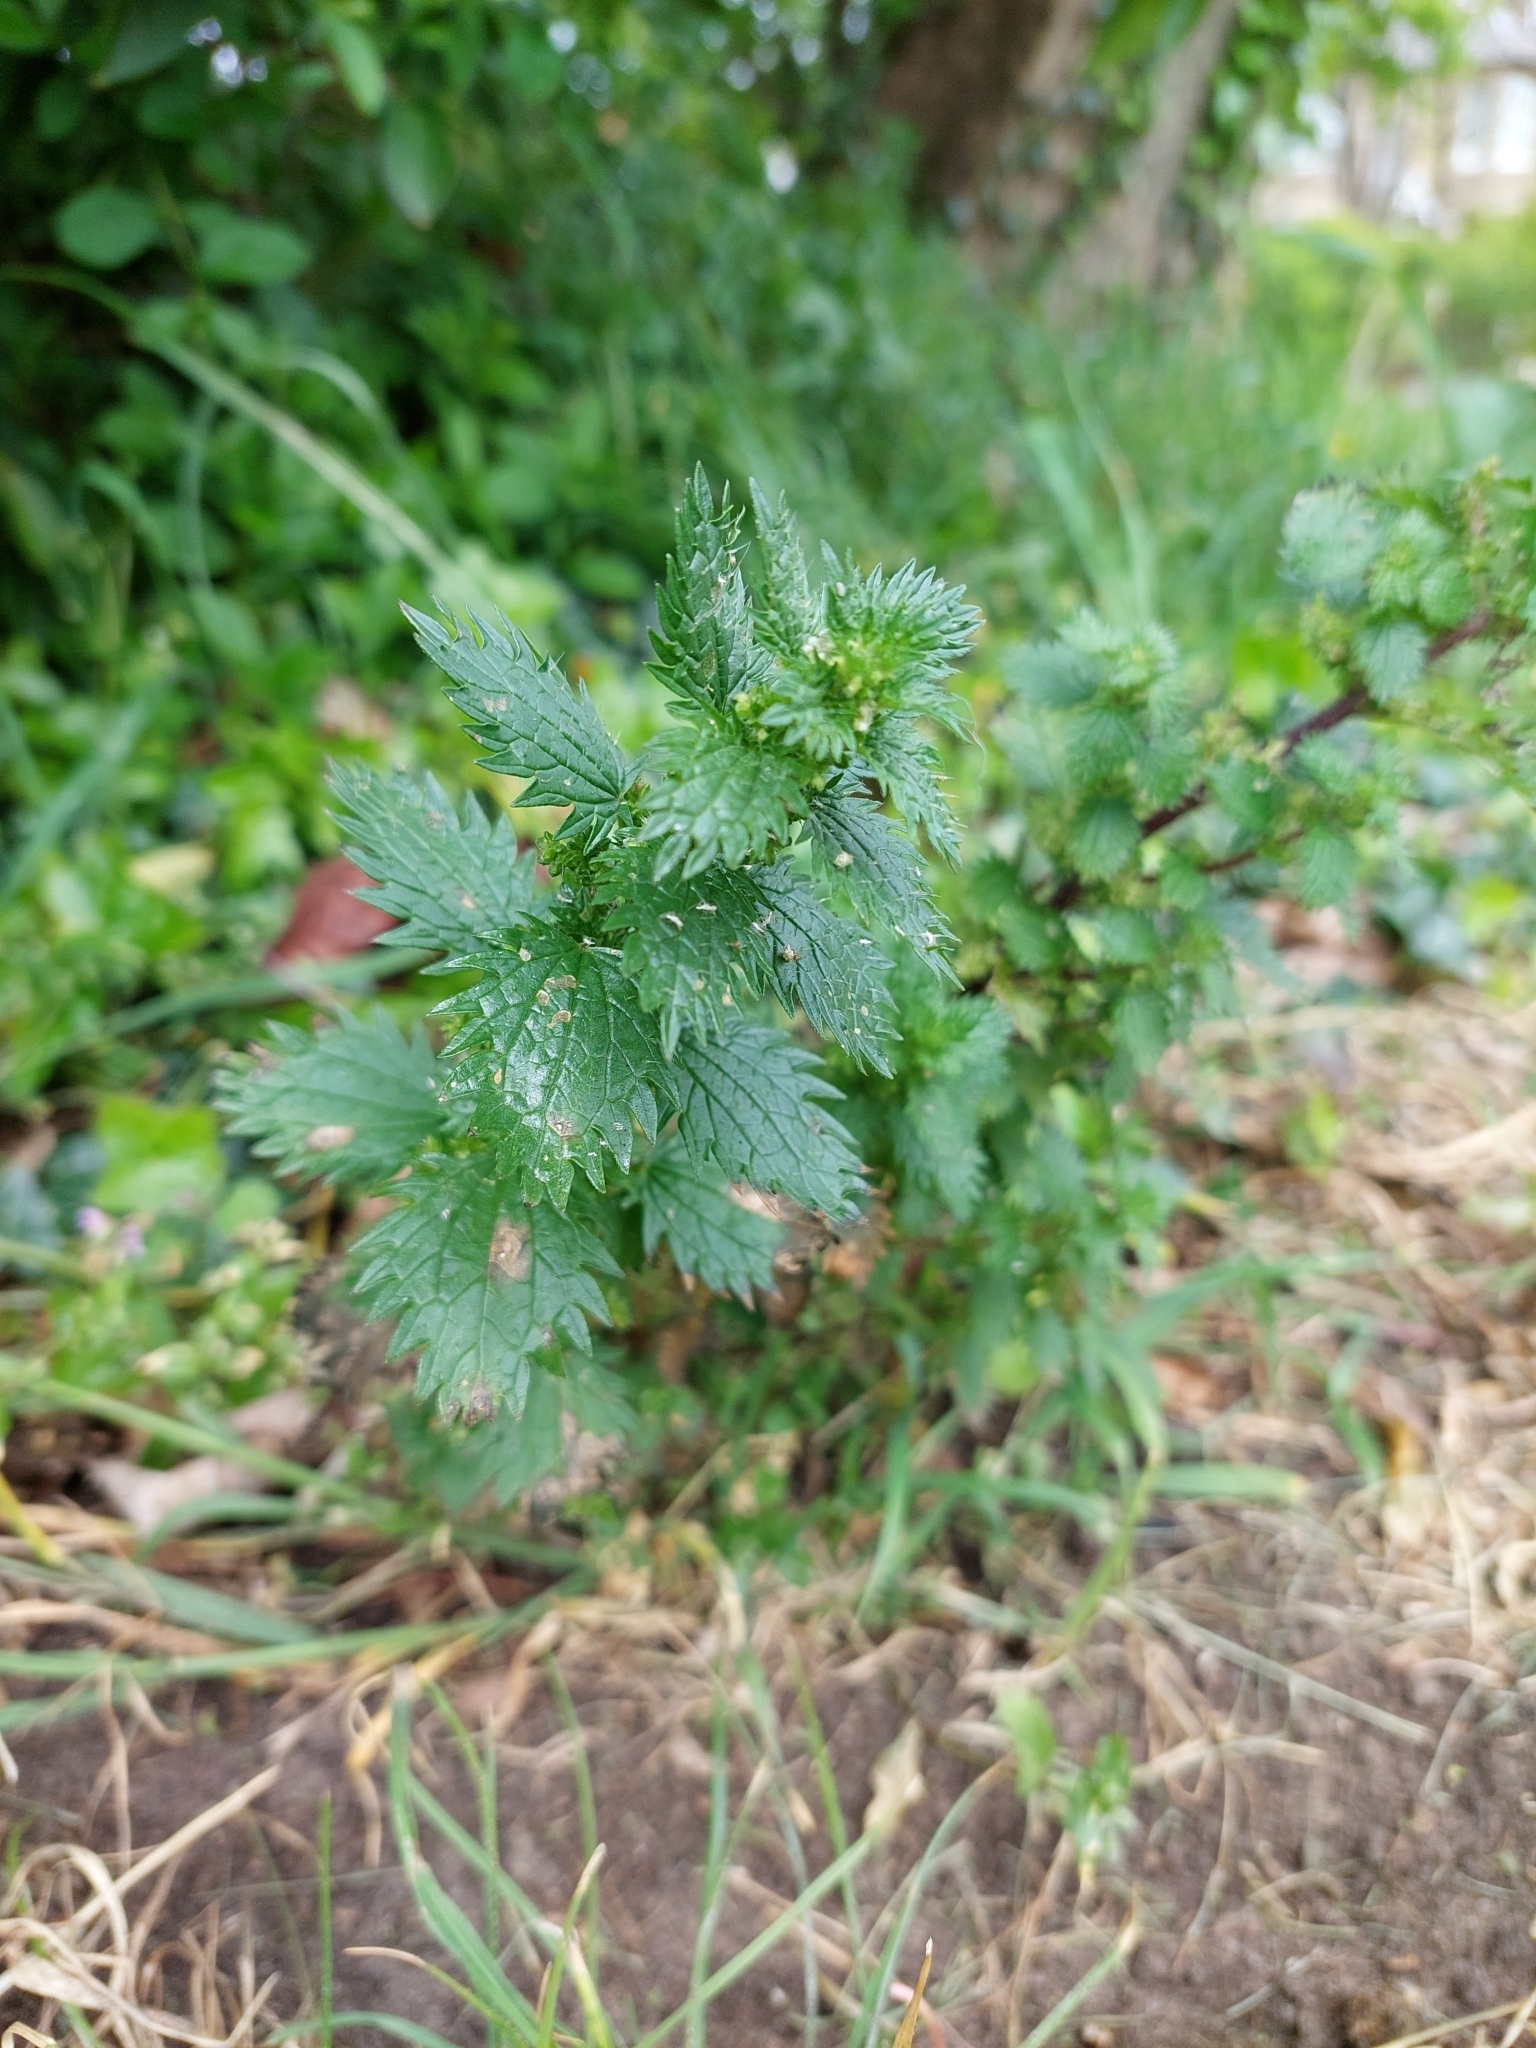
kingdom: Plantae
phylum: Tracheophyta
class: Magnoliopsida
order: Rosales
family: Urticaceae
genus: Urtica
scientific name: Urtica urens
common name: Dwarf nettle
